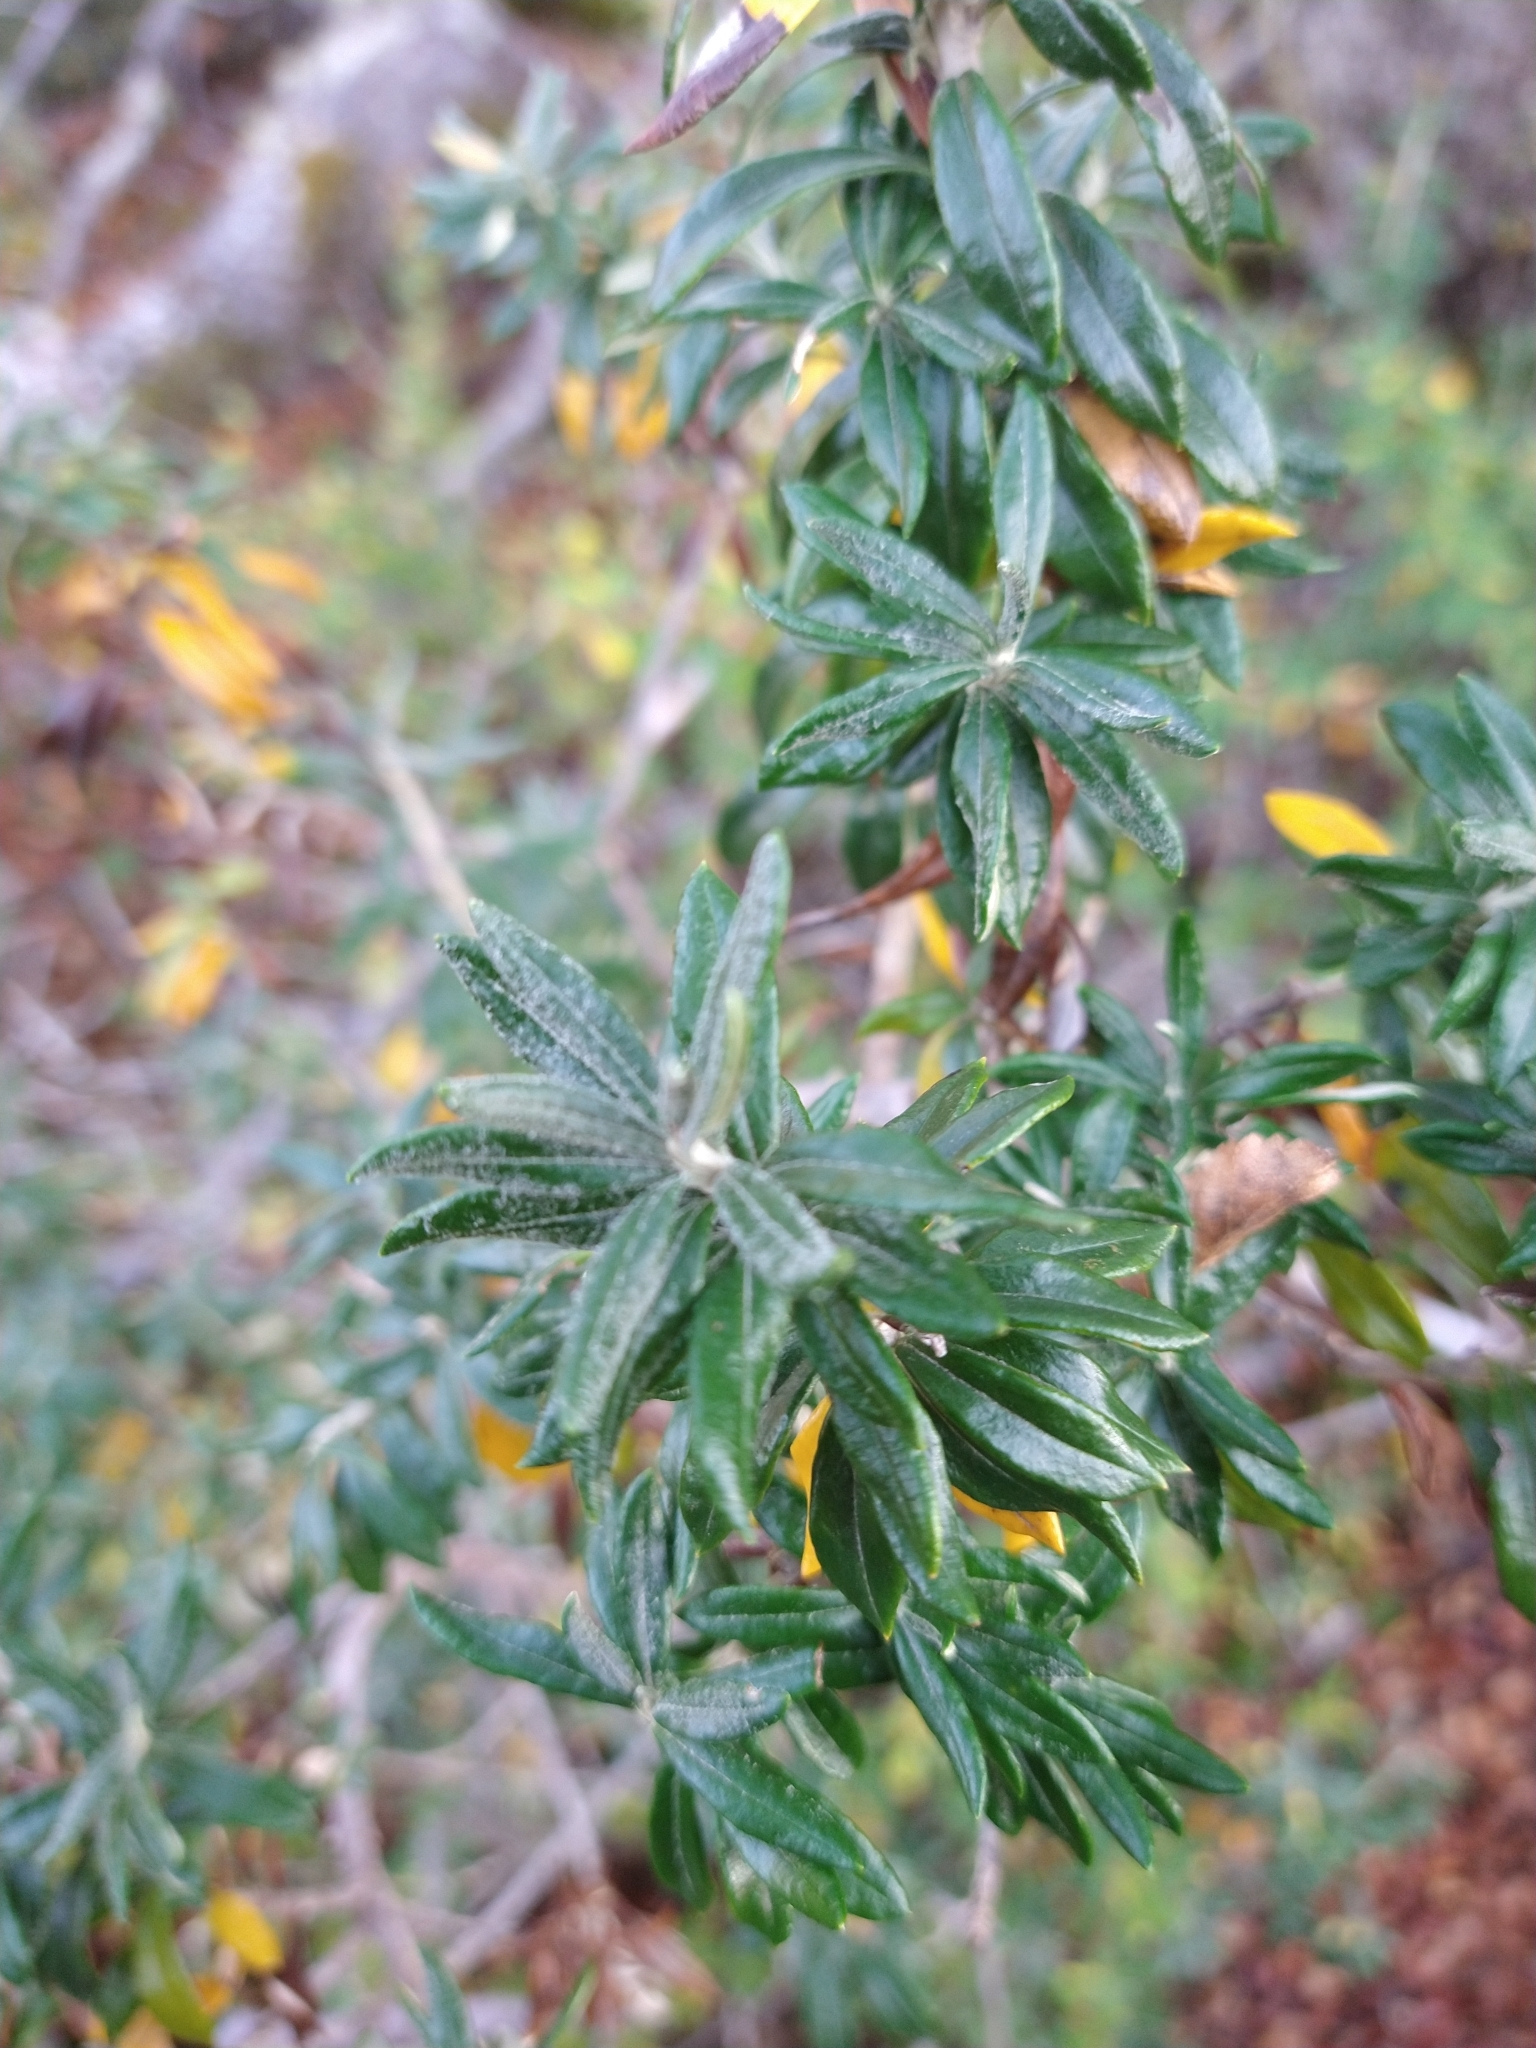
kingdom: Plantae
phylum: Tracheophyta
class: Magnoliopsida
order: Asterales
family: Asteraceae
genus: Chiliotrichum
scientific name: Chiliotrichum diffusum
